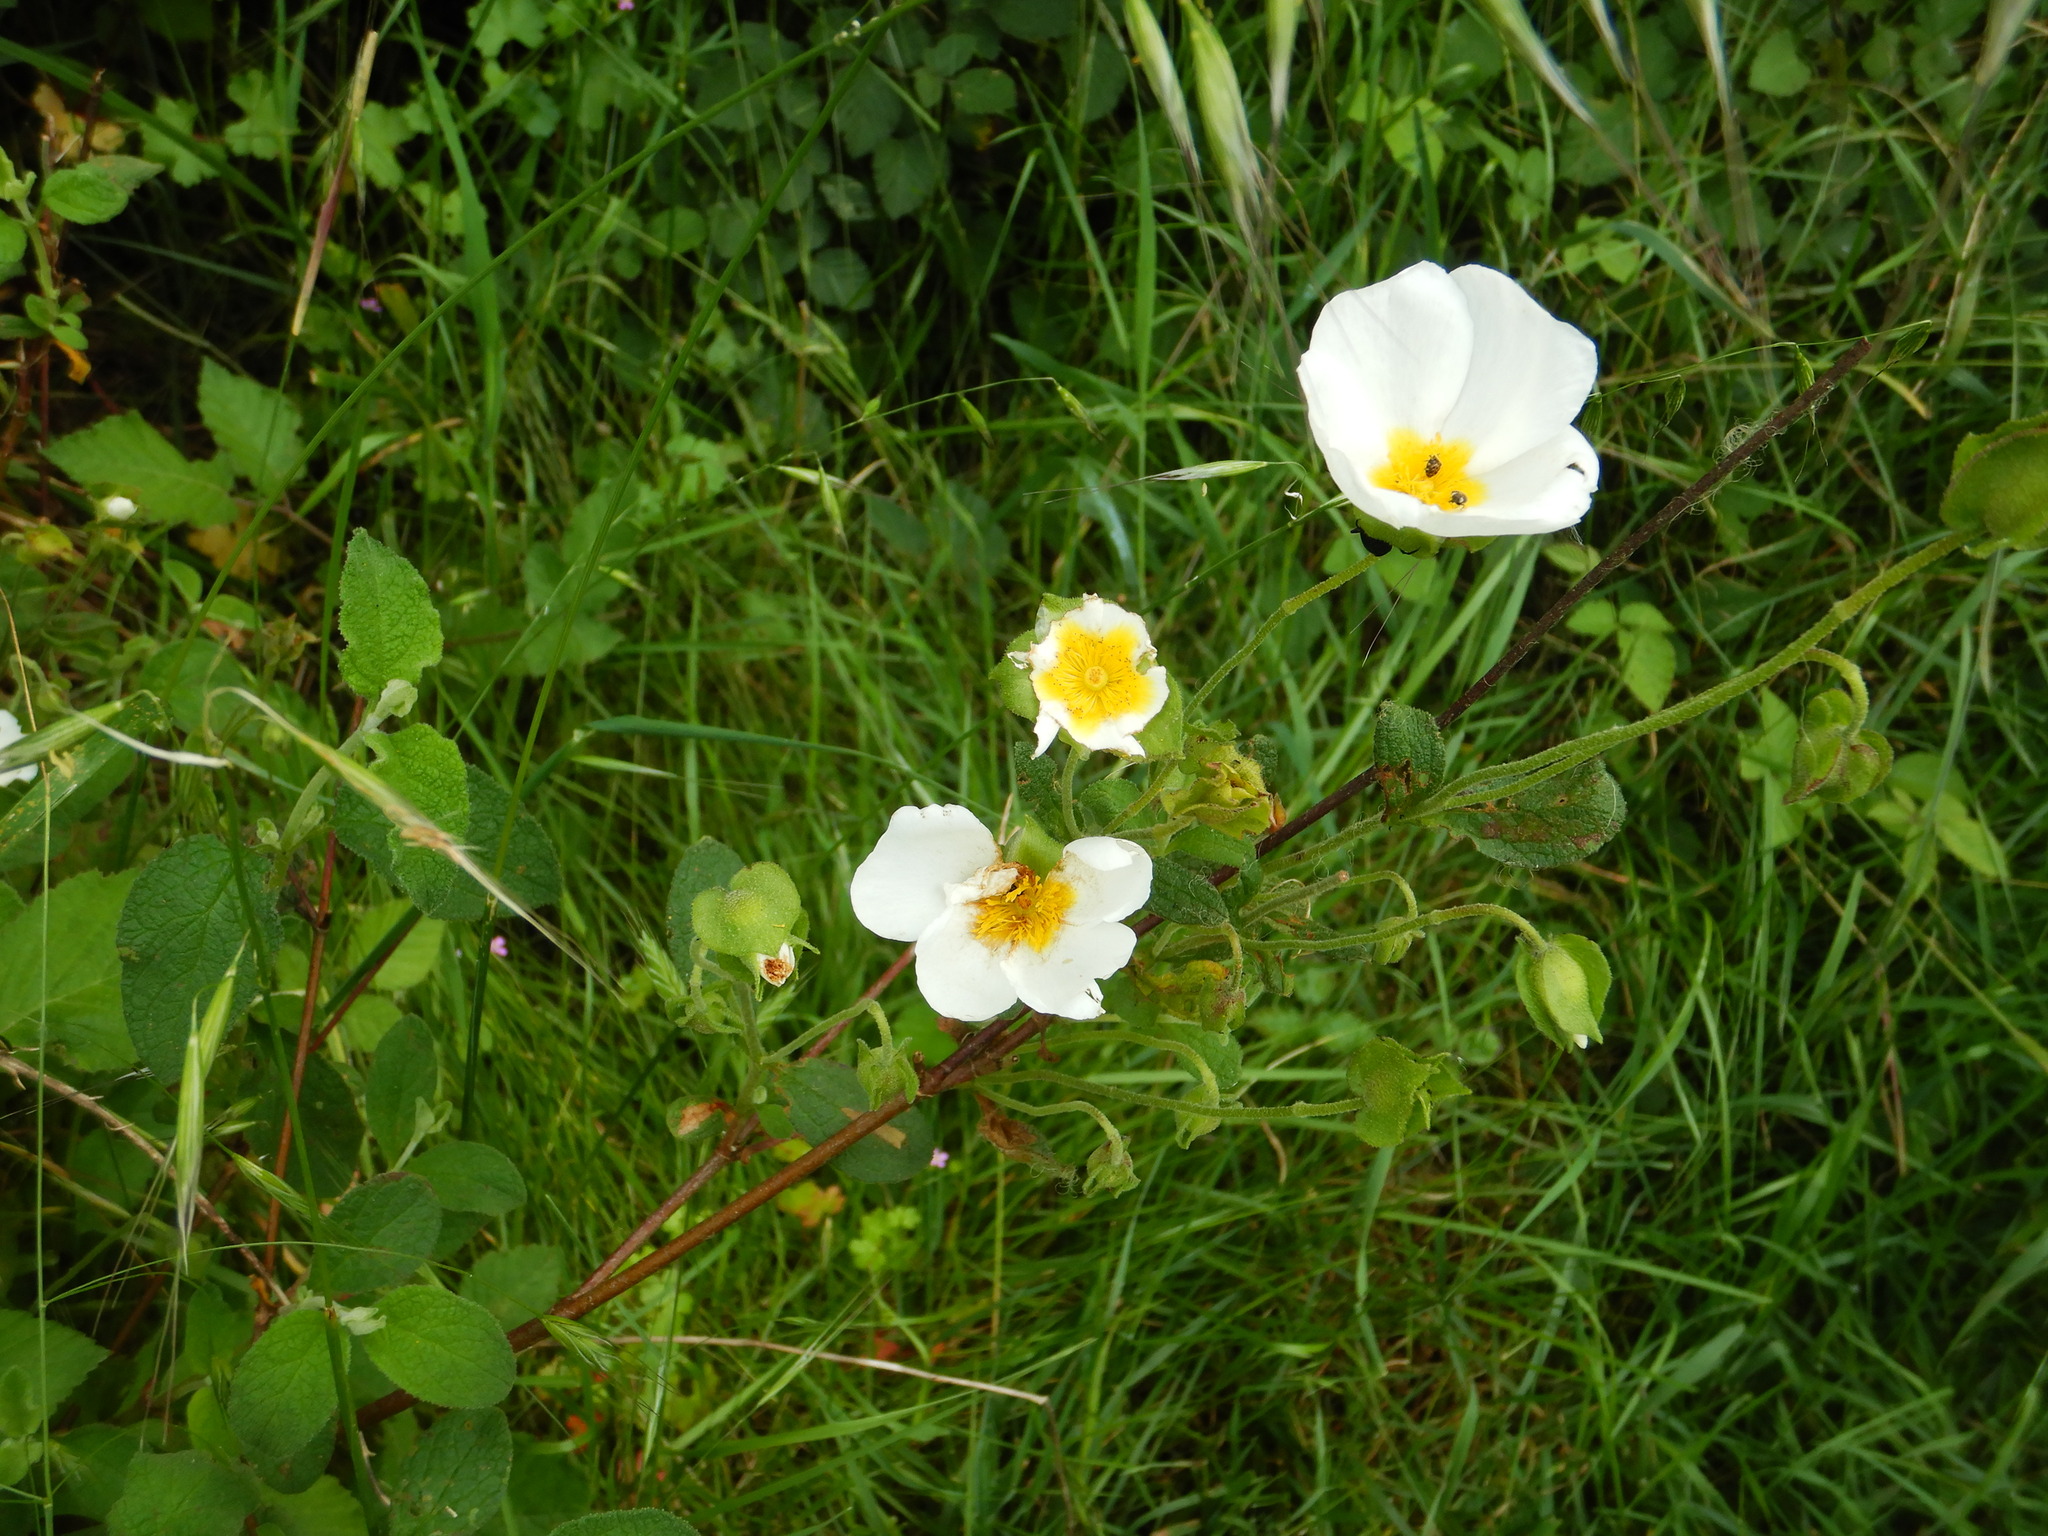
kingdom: Plantae
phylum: Tracheophyta
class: Magnoliopsida
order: Malvales
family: Cistaceae
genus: Cistus
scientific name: Cistus salviifolius
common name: Salvia cistus
